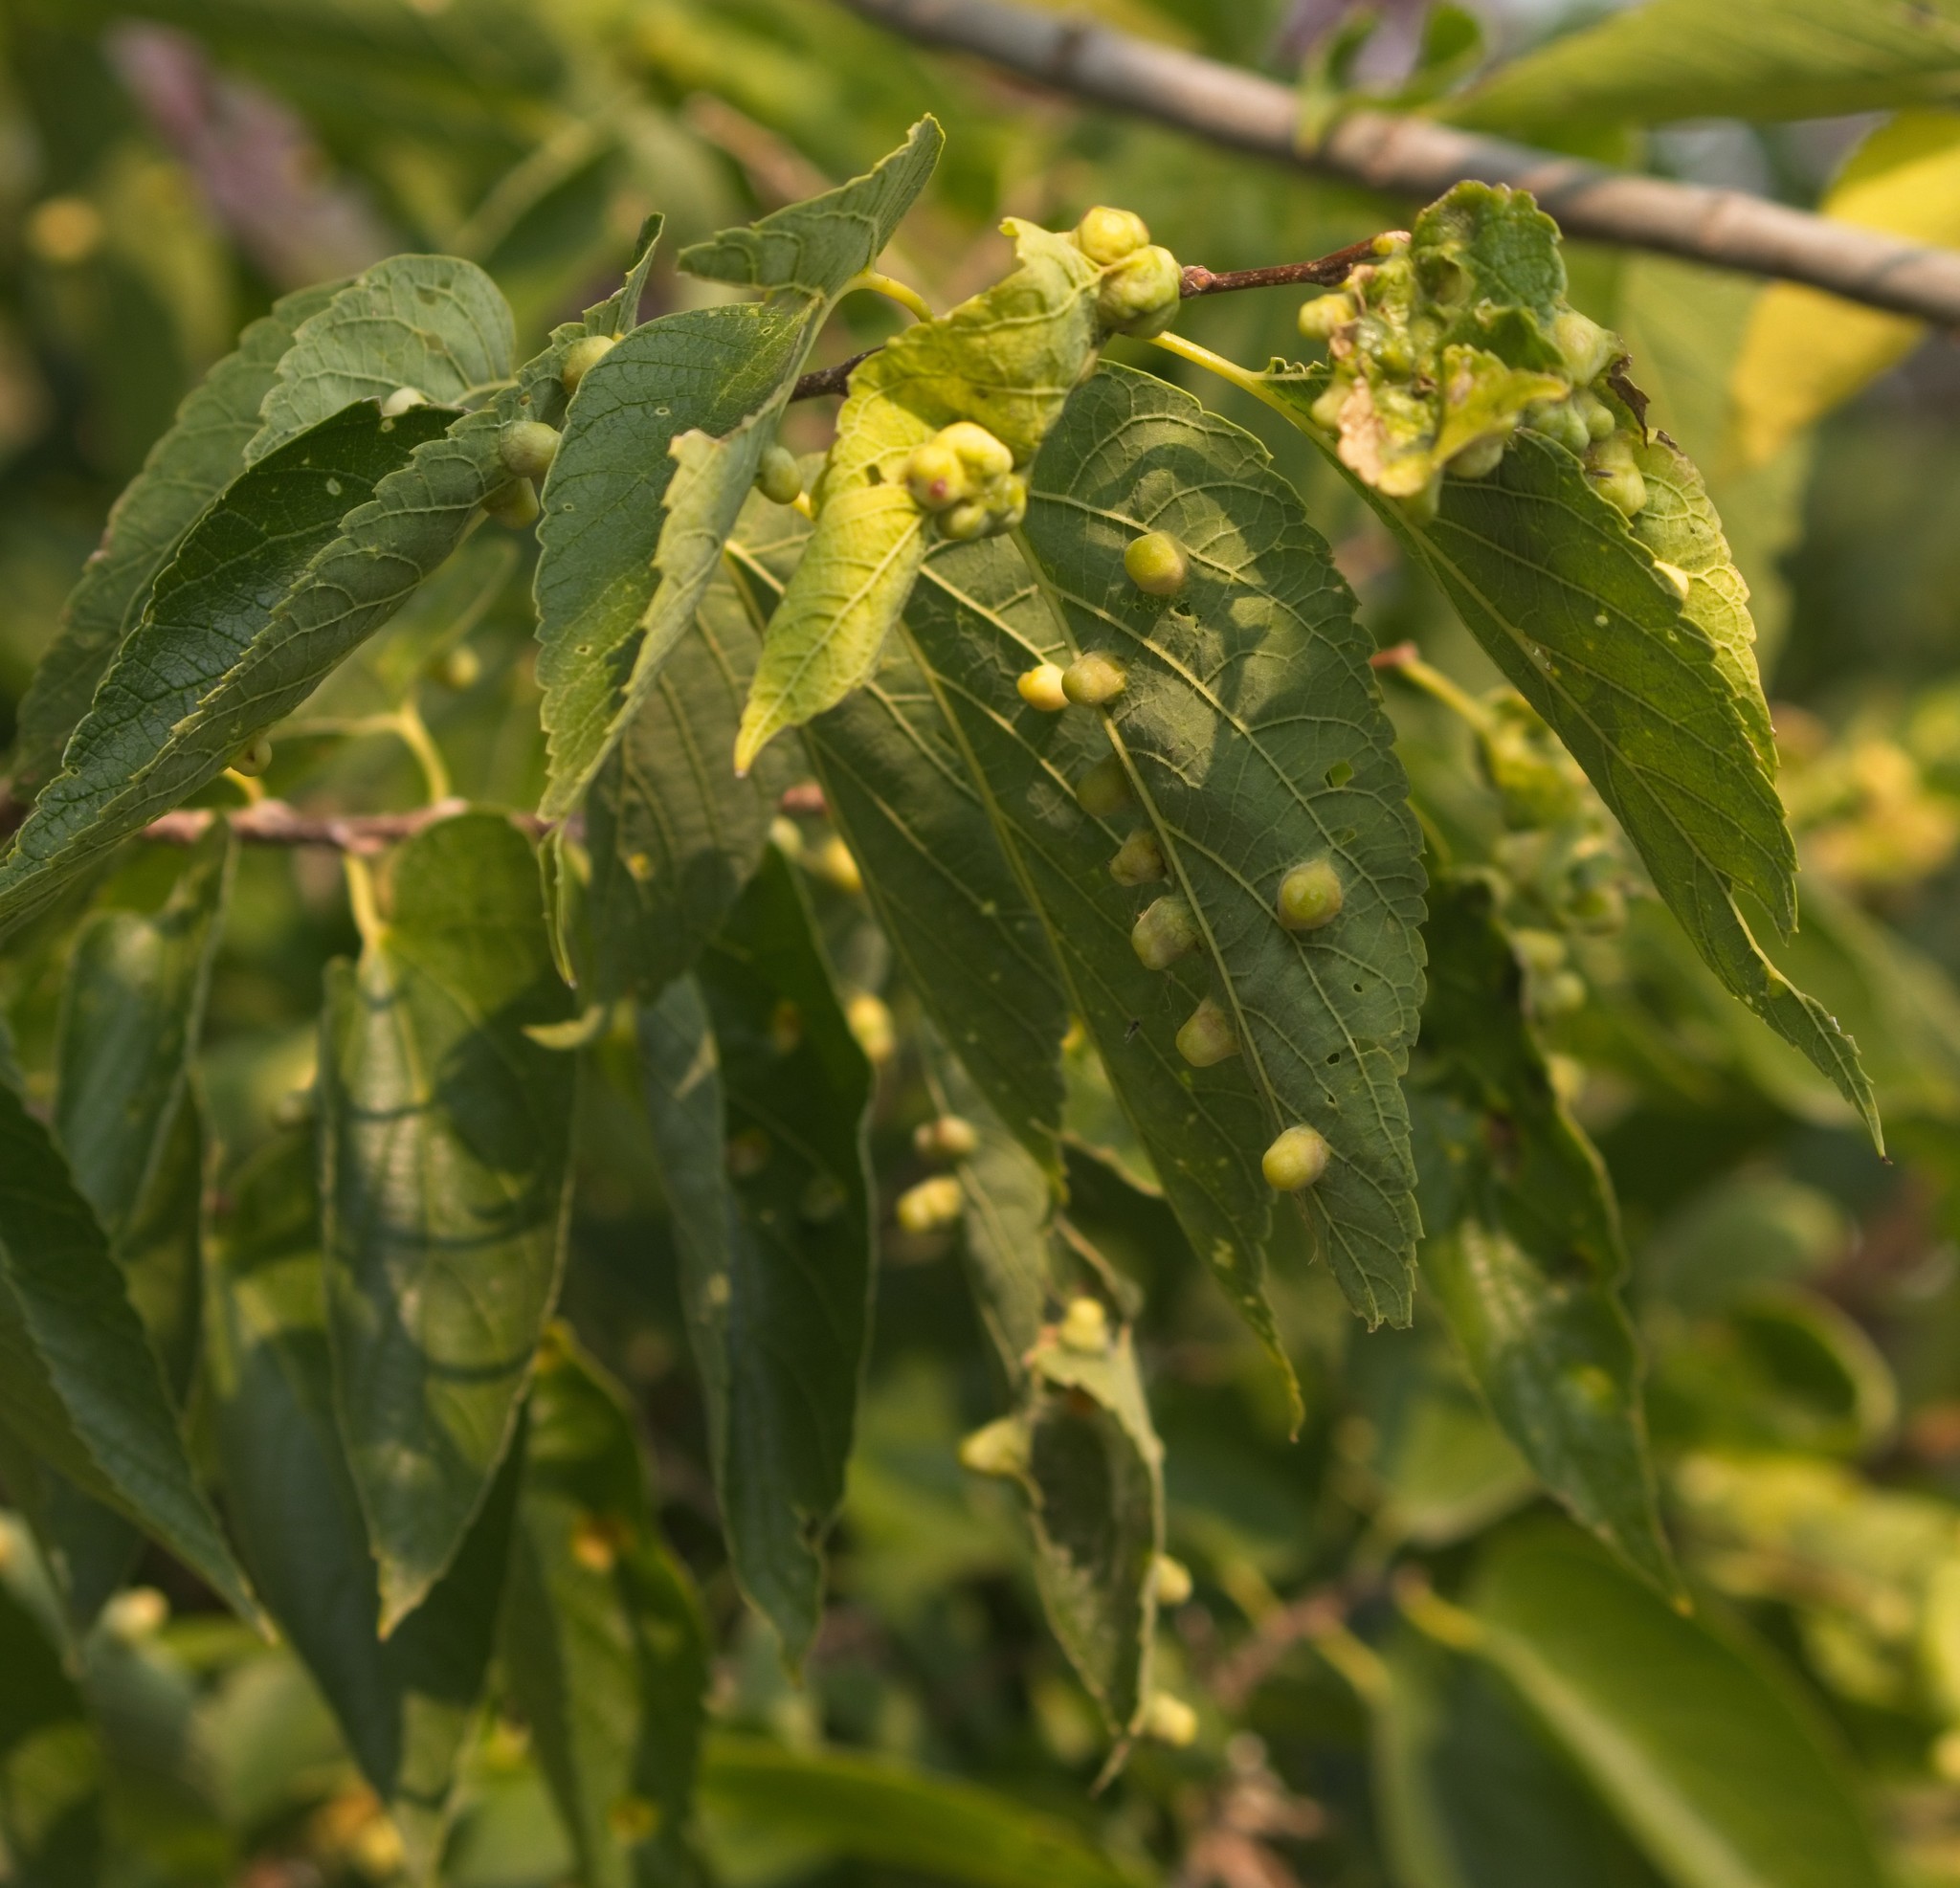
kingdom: Animalia
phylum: Arthropoda
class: Insecta
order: Hemiptera
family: Aphalaridae
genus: Pachypsylla
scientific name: Pachypsylla celtidismamma
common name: Hackberry nipplegall psyllid
